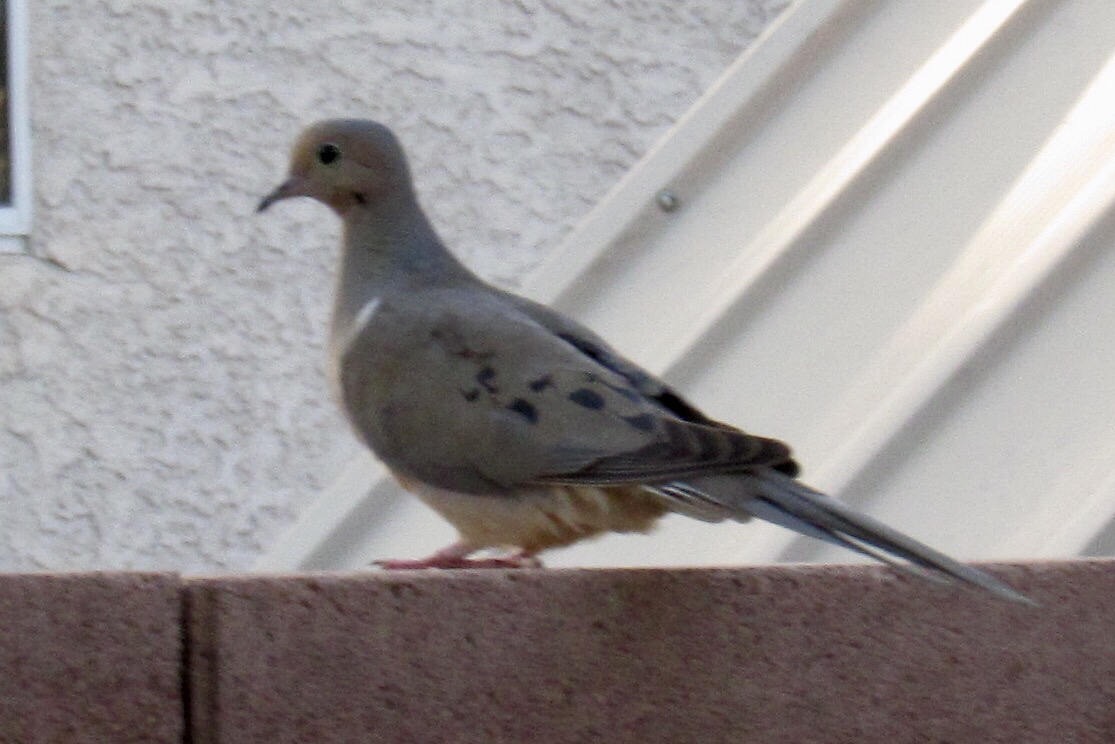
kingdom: Animalia
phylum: Chordata
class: Aves
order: Columbiformes
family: Columbidae
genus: Zenaida
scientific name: Zenaida macroura
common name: Mourning dove
